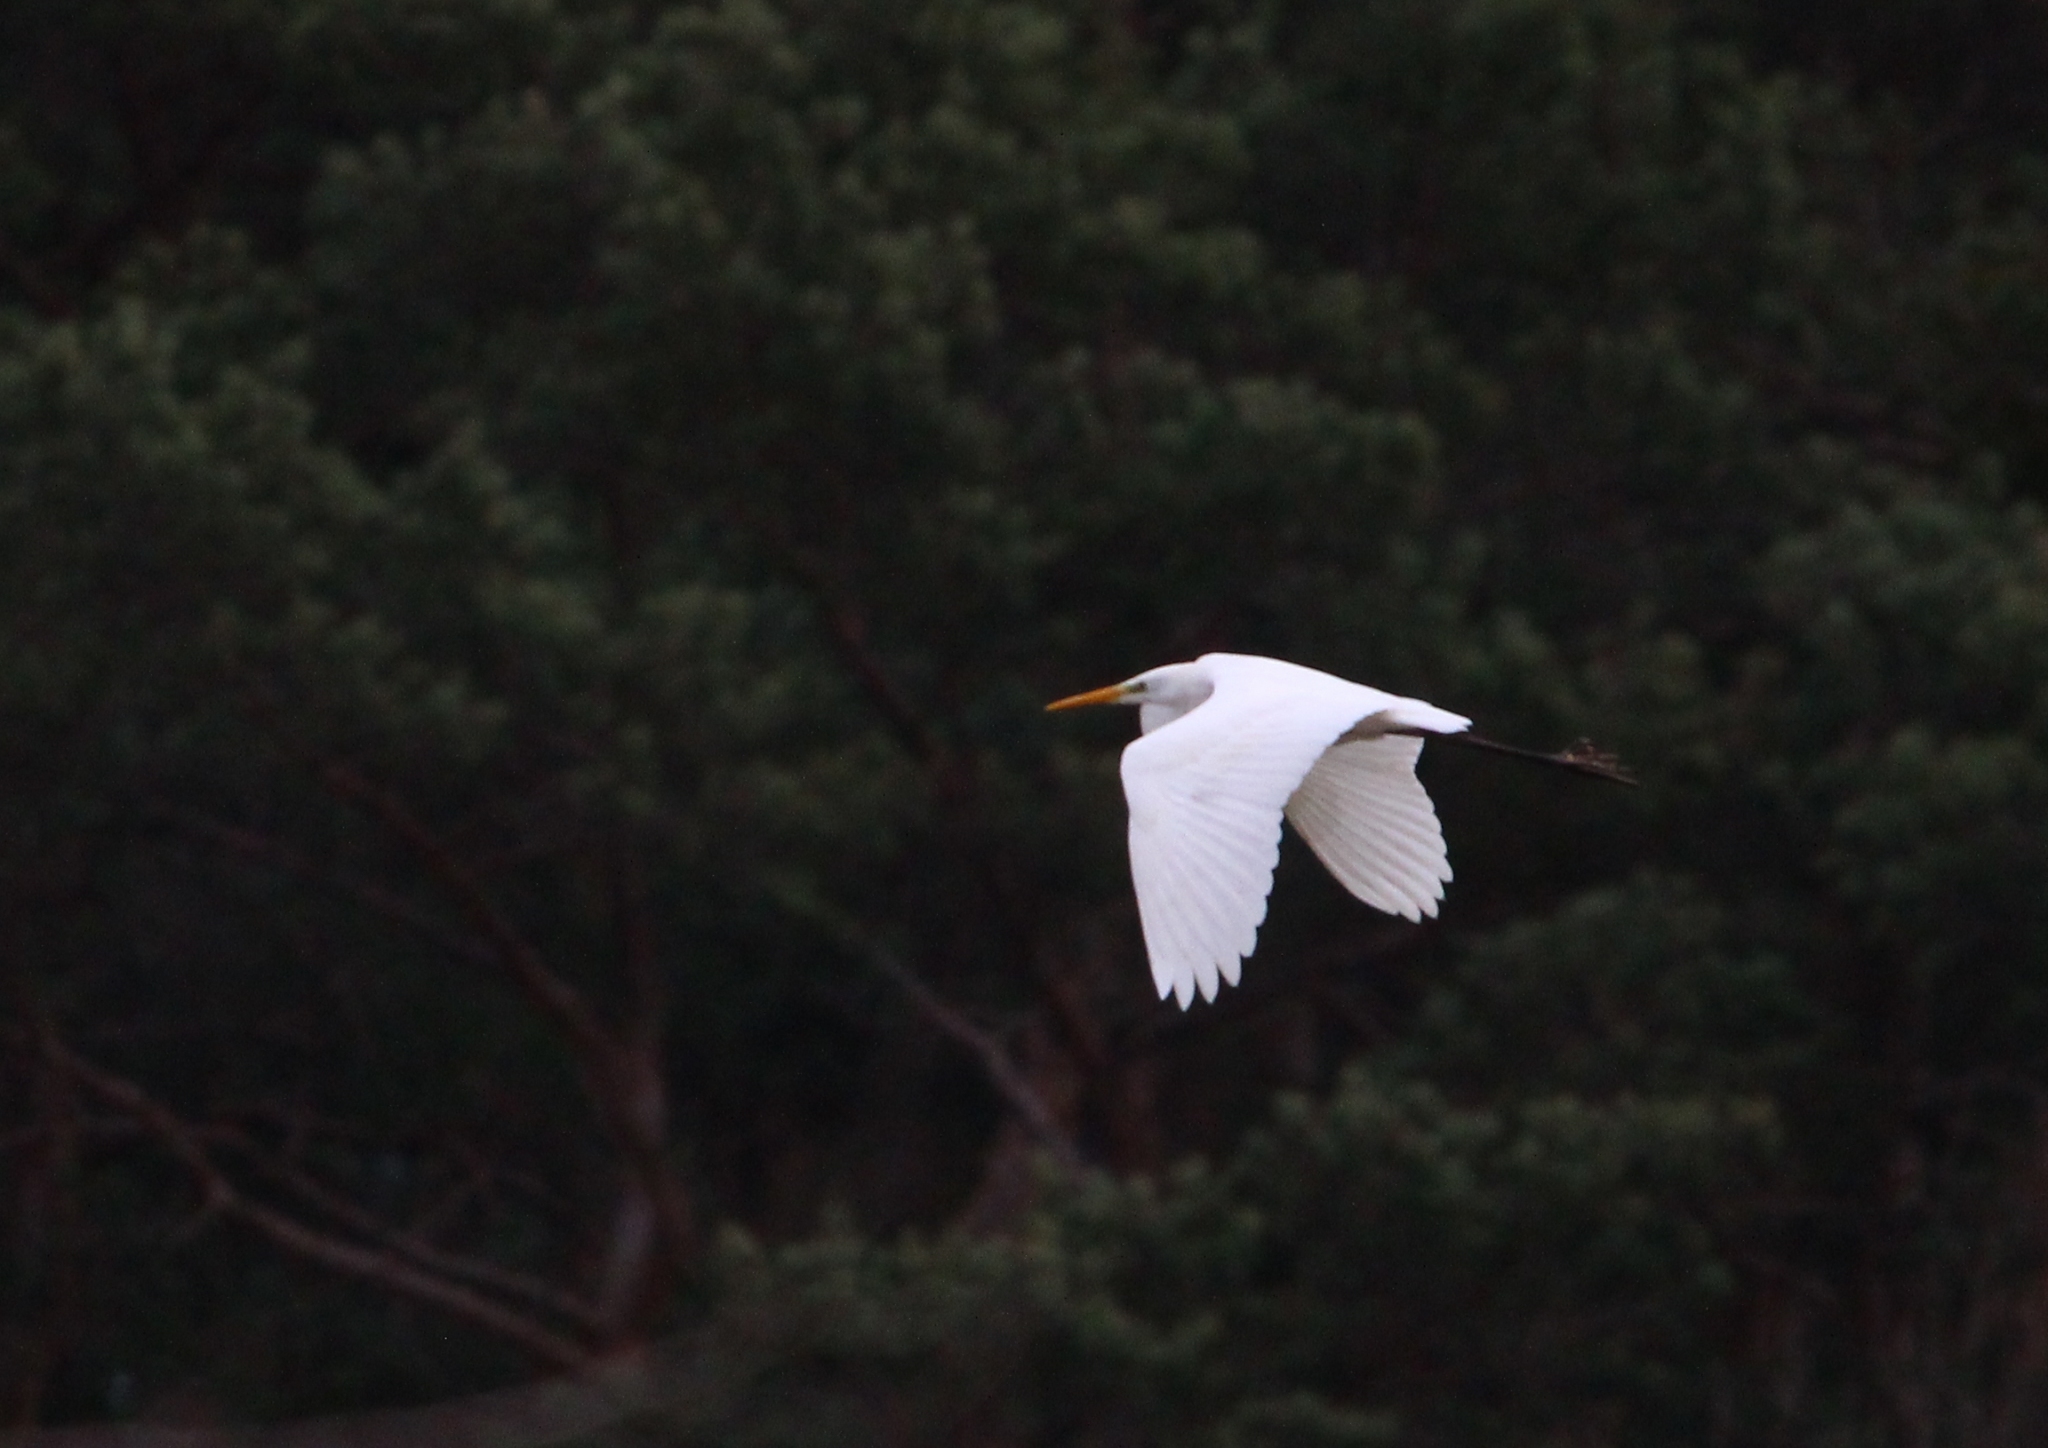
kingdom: Animalia
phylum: Chordata
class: Aves
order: Pelecaniformes
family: Ardeidae
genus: Ardea
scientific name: Ardea alba
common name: Great egret
